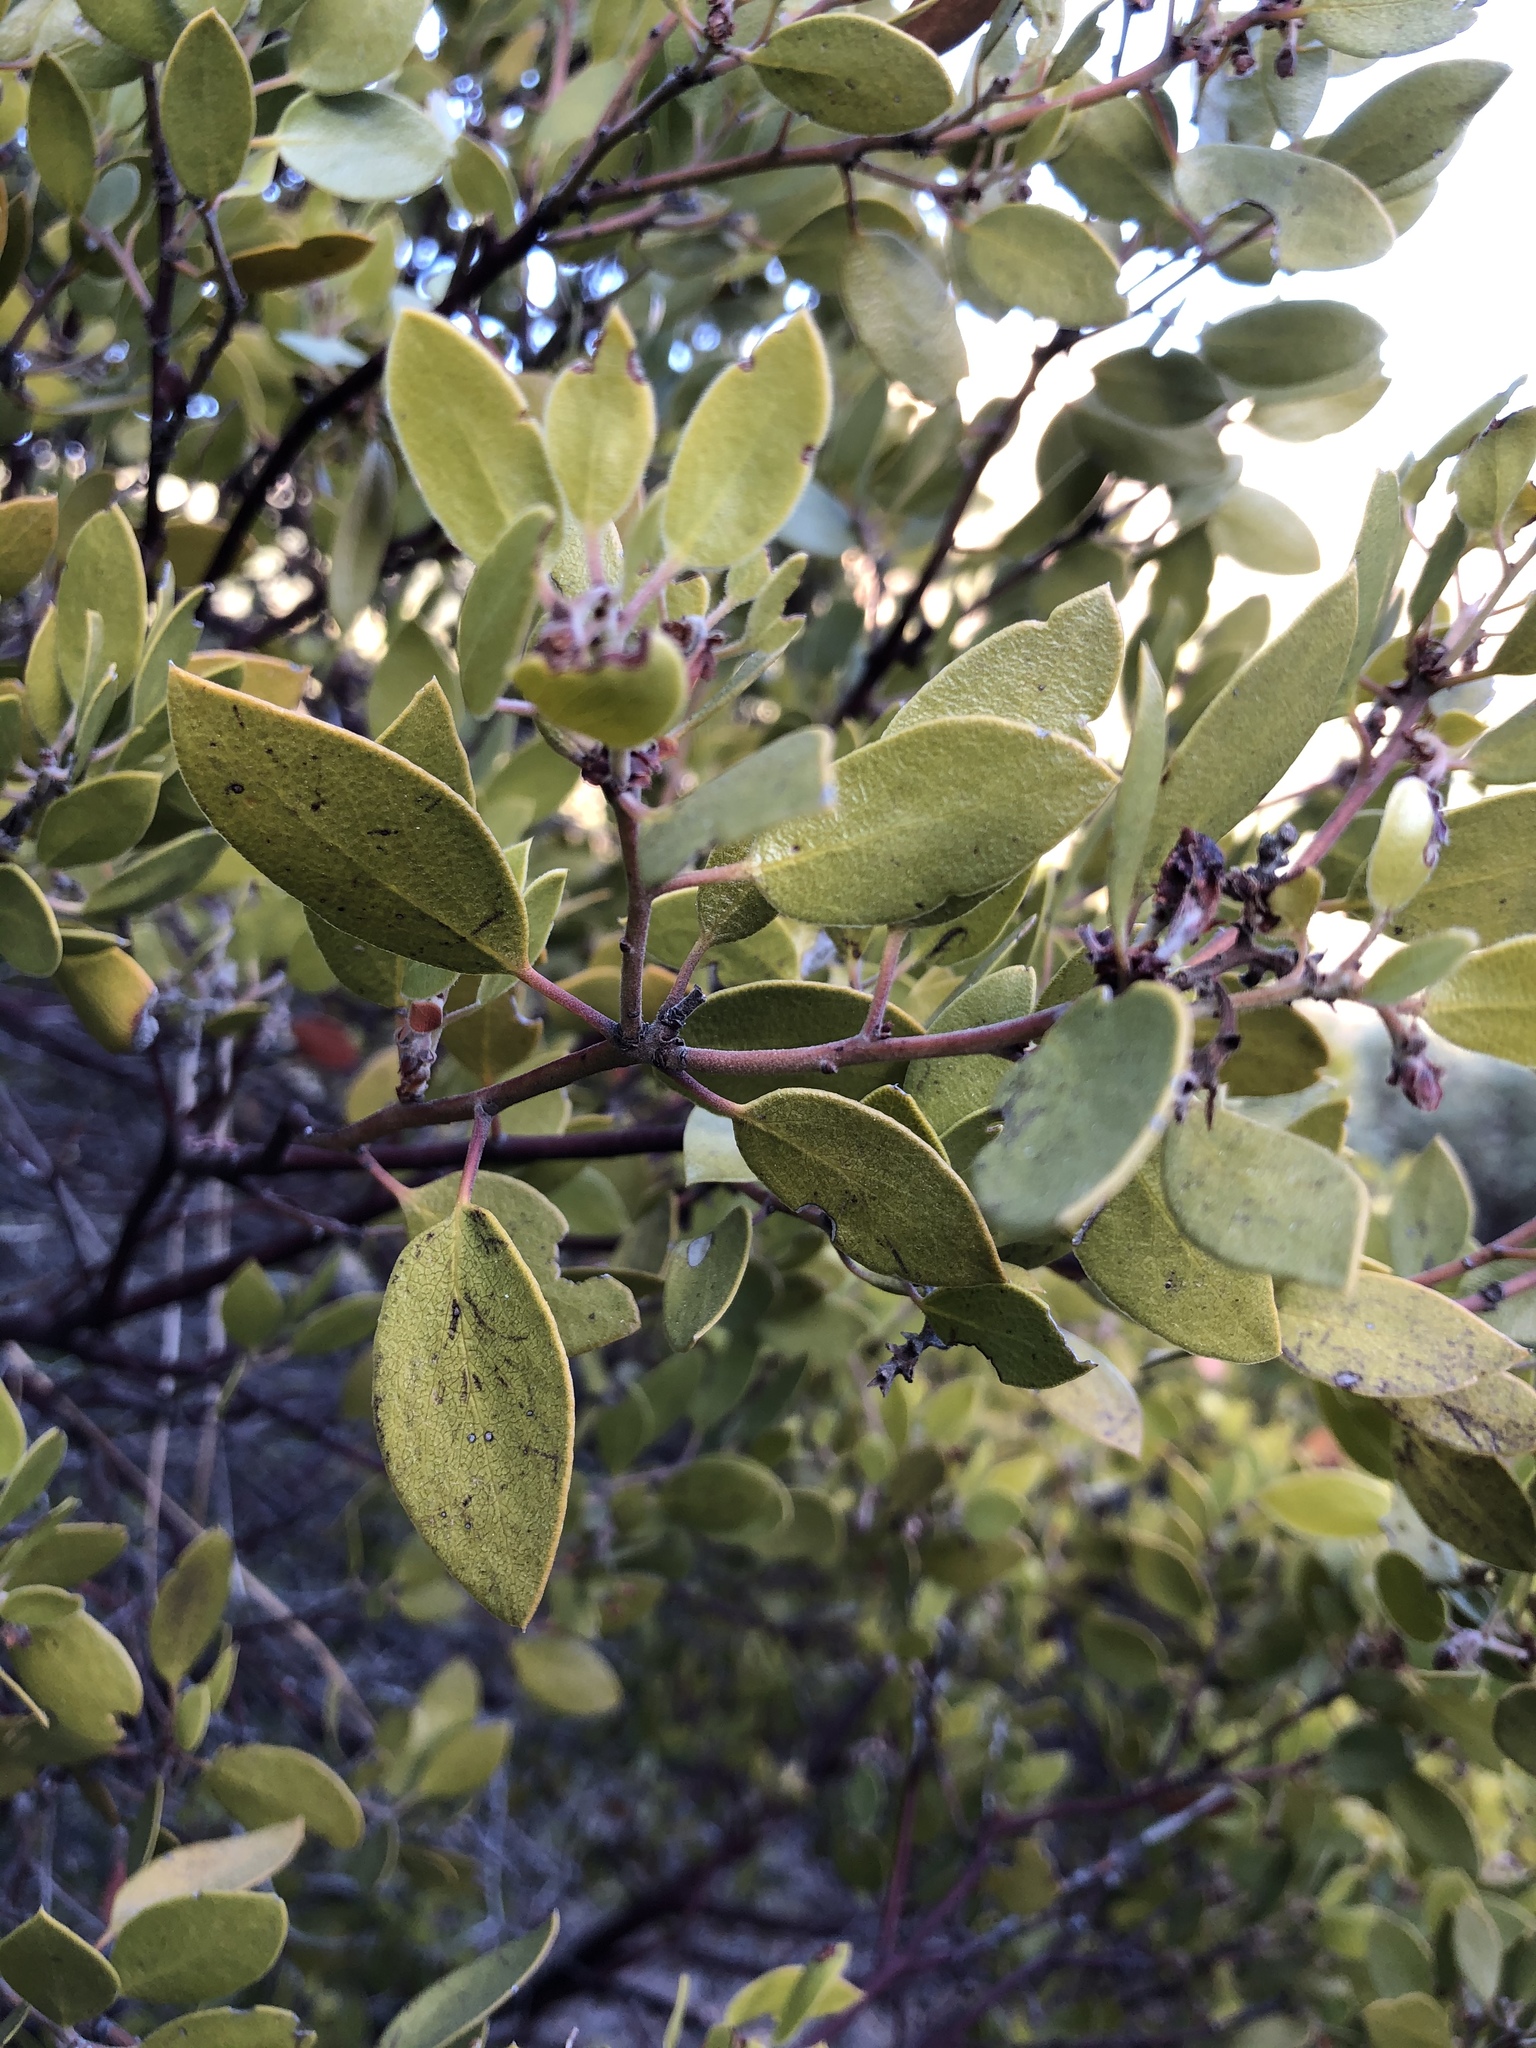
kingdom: Plantae
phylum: Tracheophyta
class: Magnoliopsida
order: Ericales
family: Ericaceae
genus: Arctostaphylos
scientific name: Arctostaphylos manzanita
